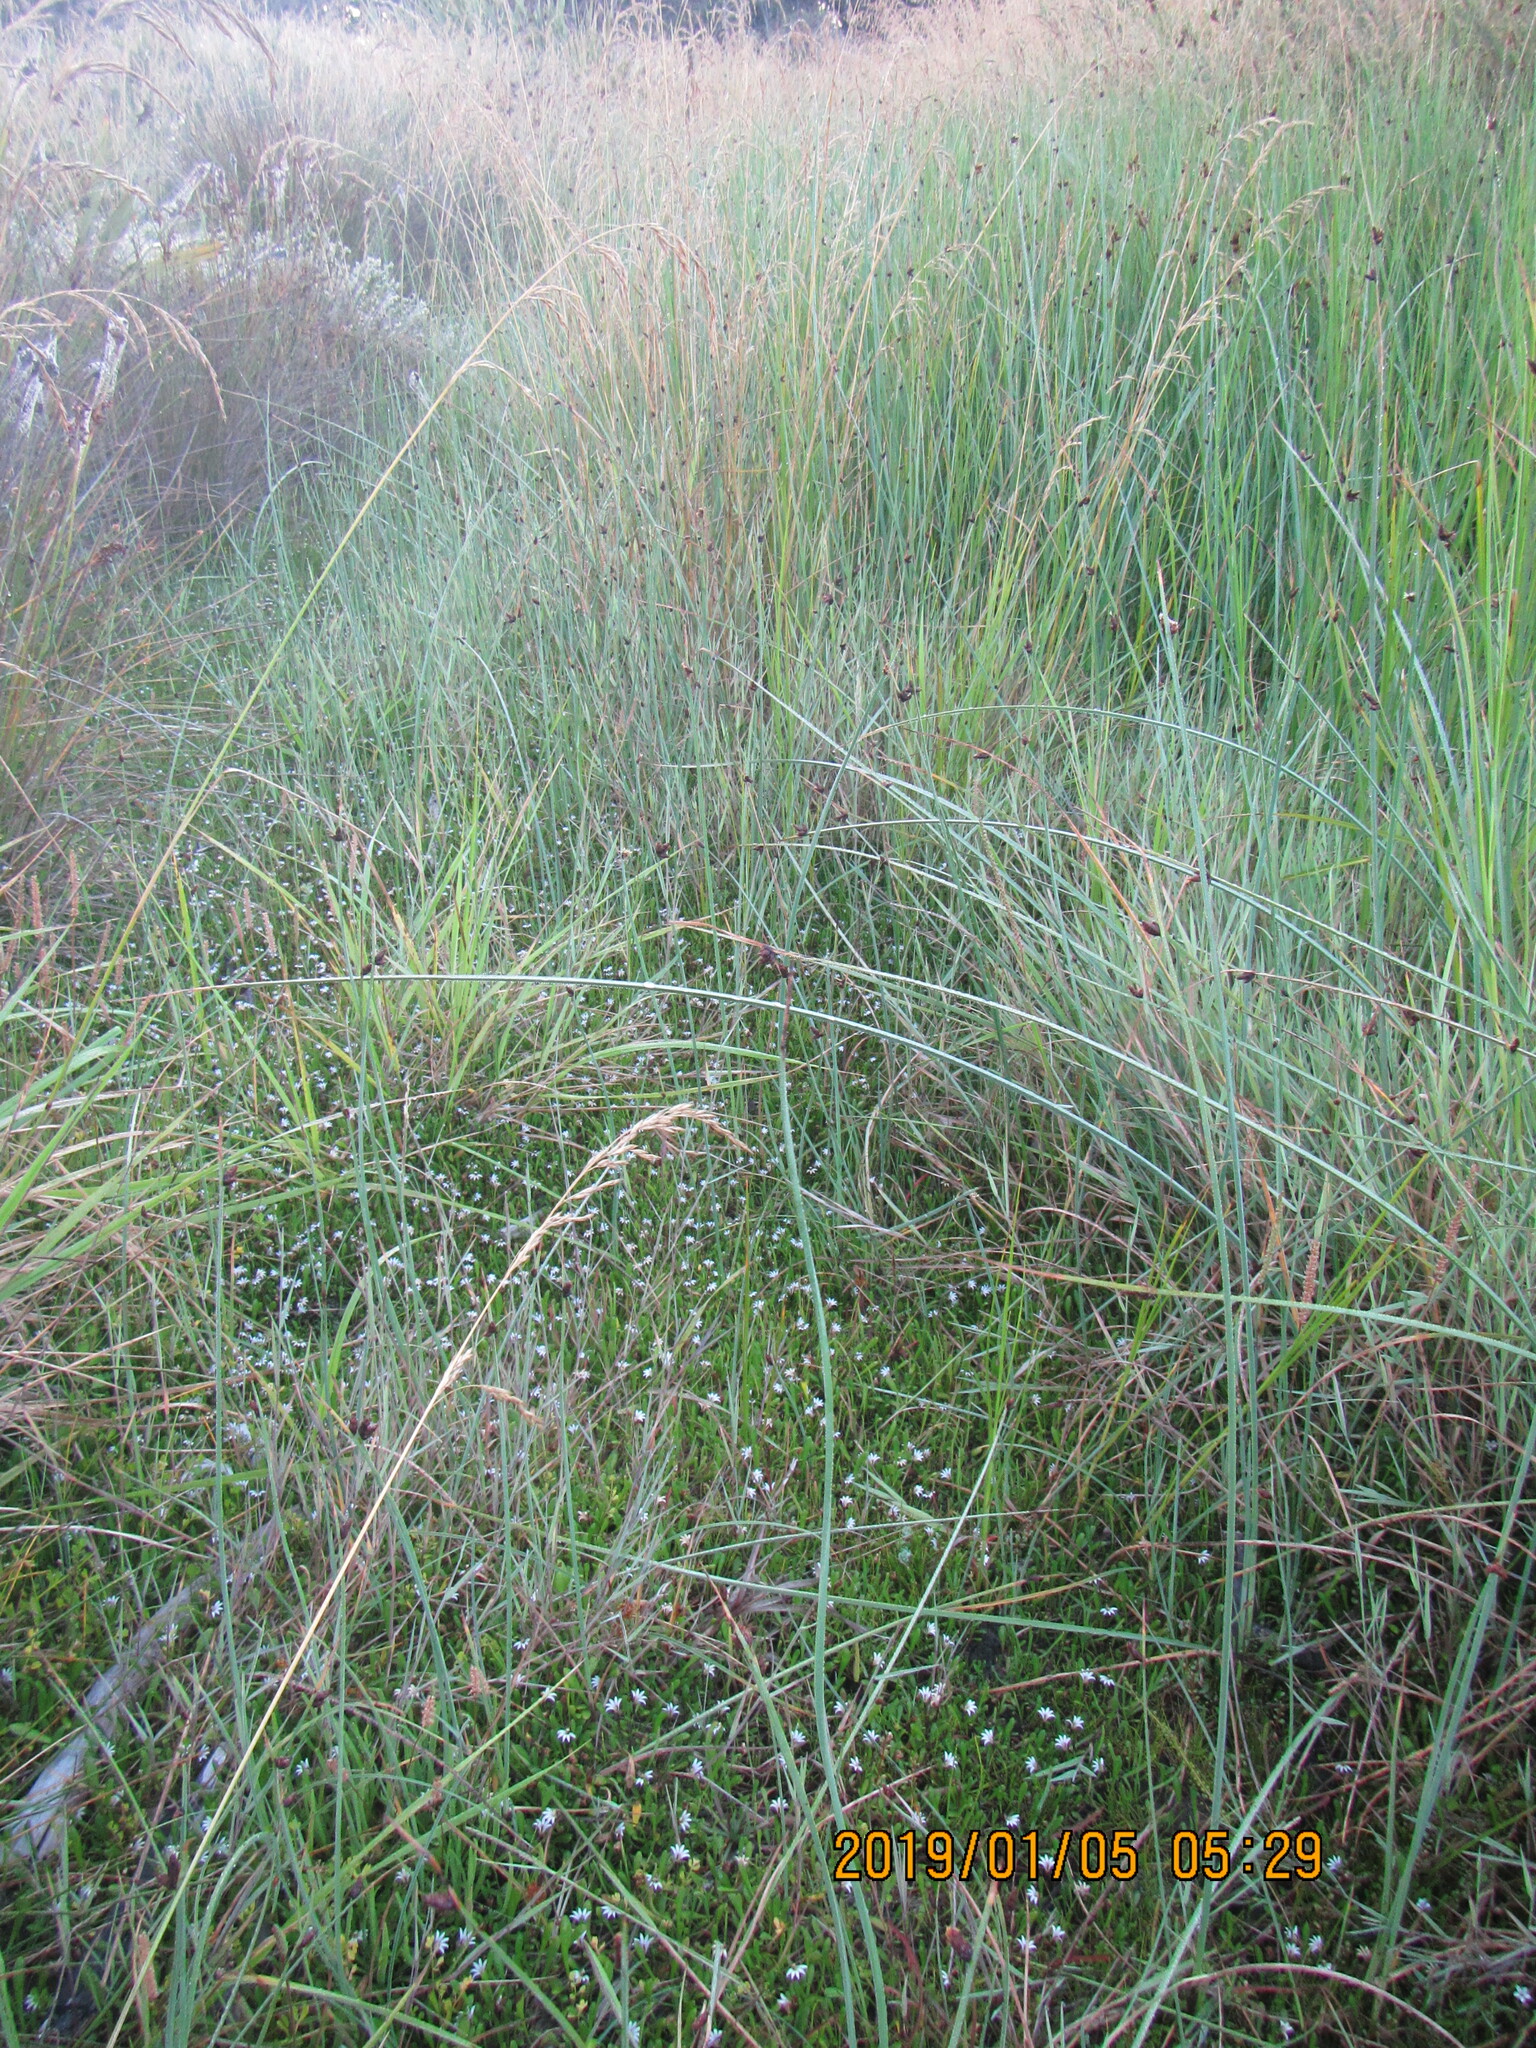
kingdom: Plantae
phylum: Tracheophyta
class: Liliopsida
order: Poales
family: Cyperaceae
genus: Schoenoplectus
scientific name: Schoenoplectus pungens
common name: Sharp club-rush
